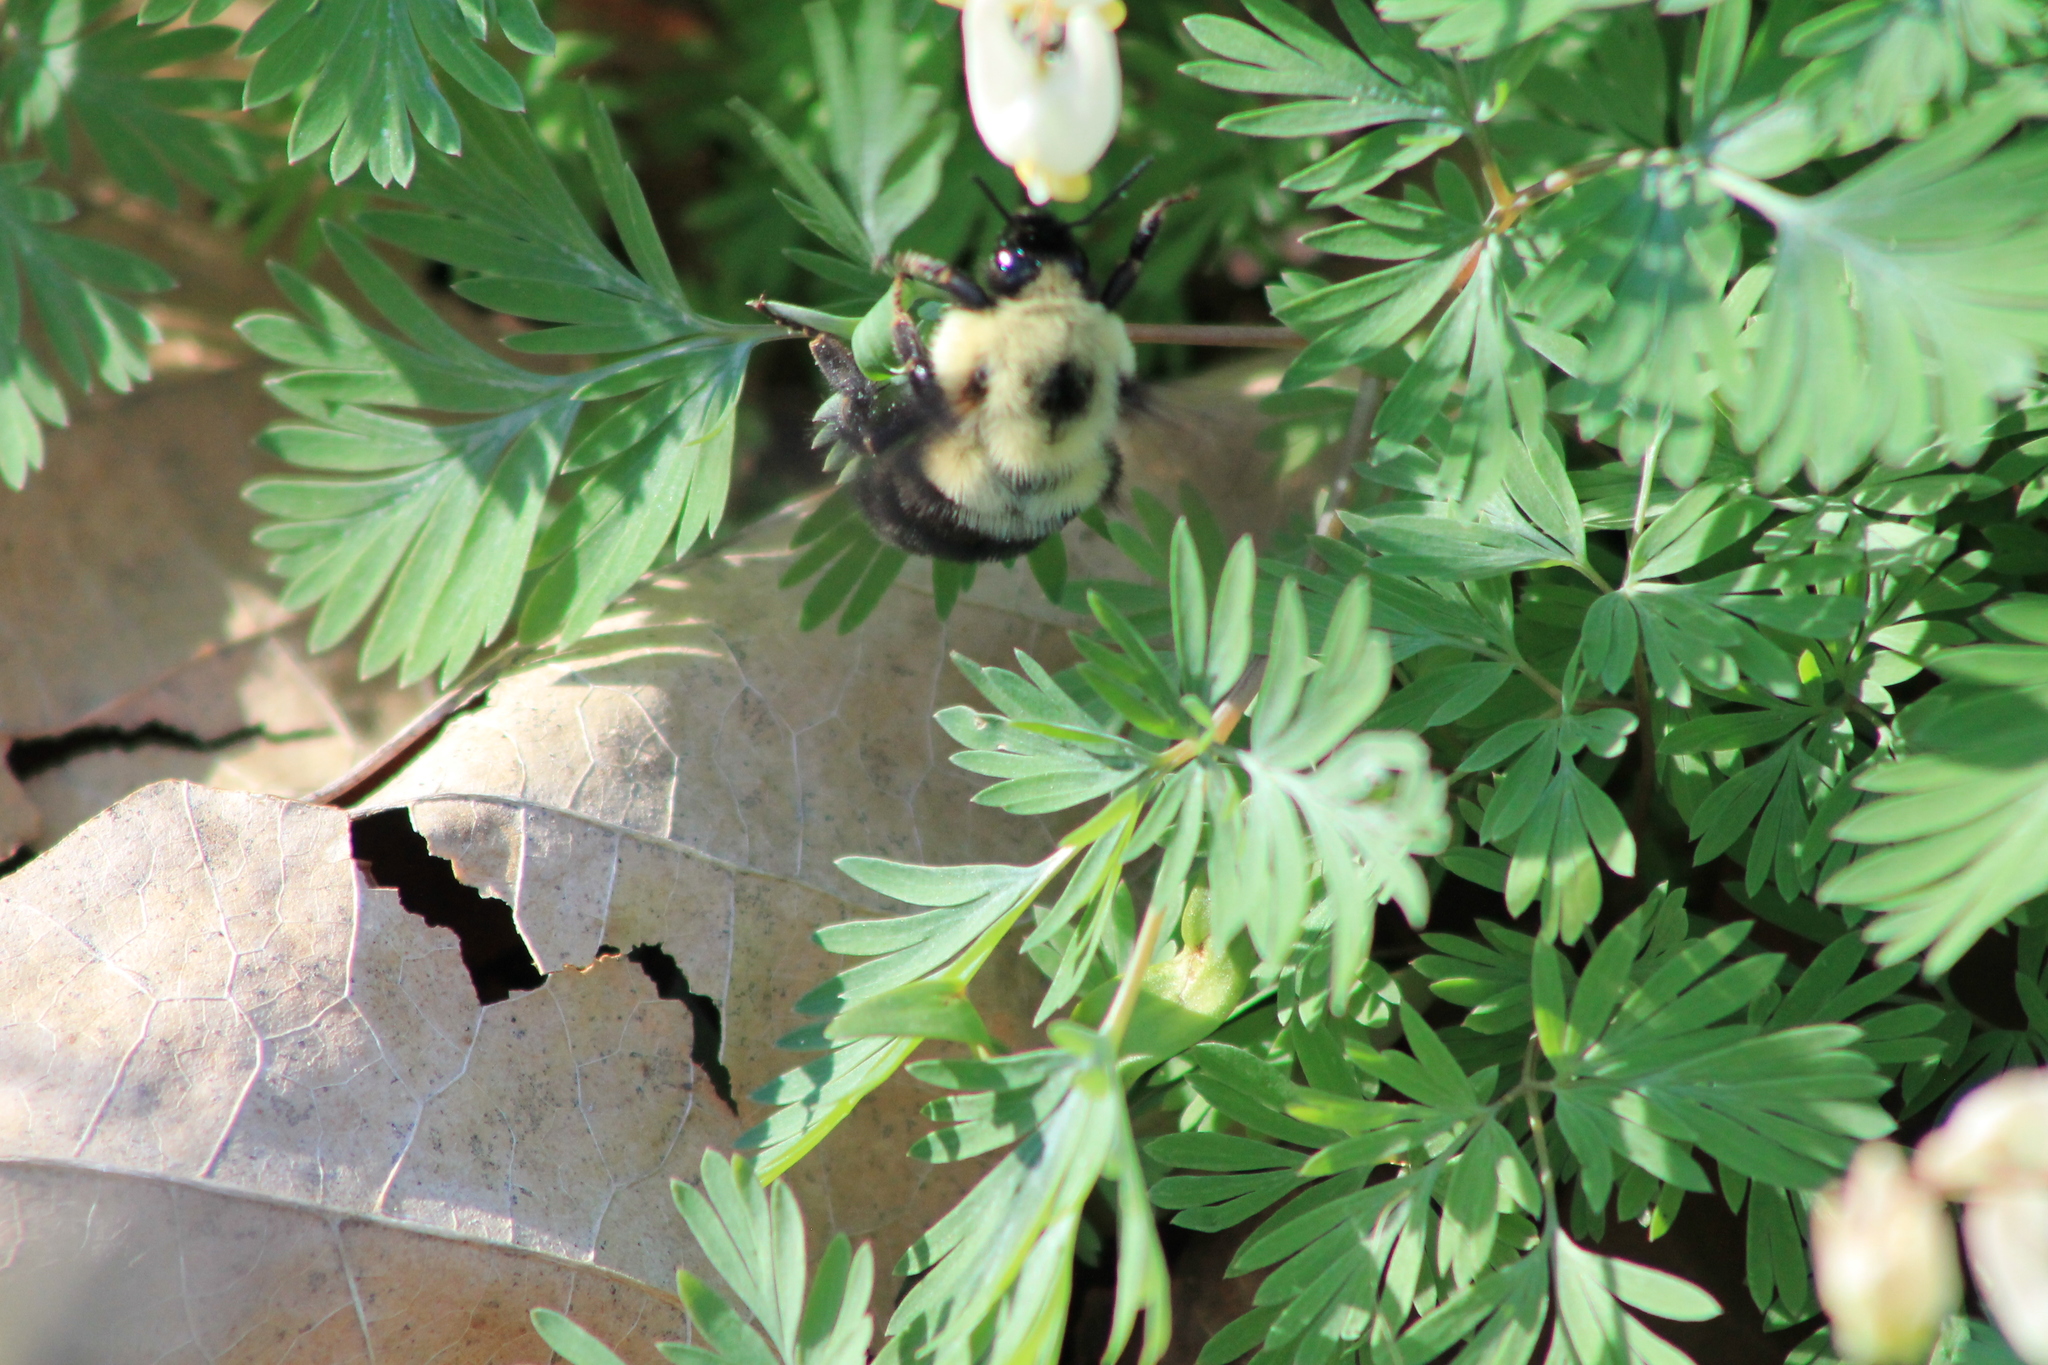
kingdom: Animalia
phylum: Arthropoda
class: Insecta
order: Hymenoptera
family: Apidae
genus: Bombus
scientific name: Bombus bimaculatus
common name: Two-spotted bumble bee
